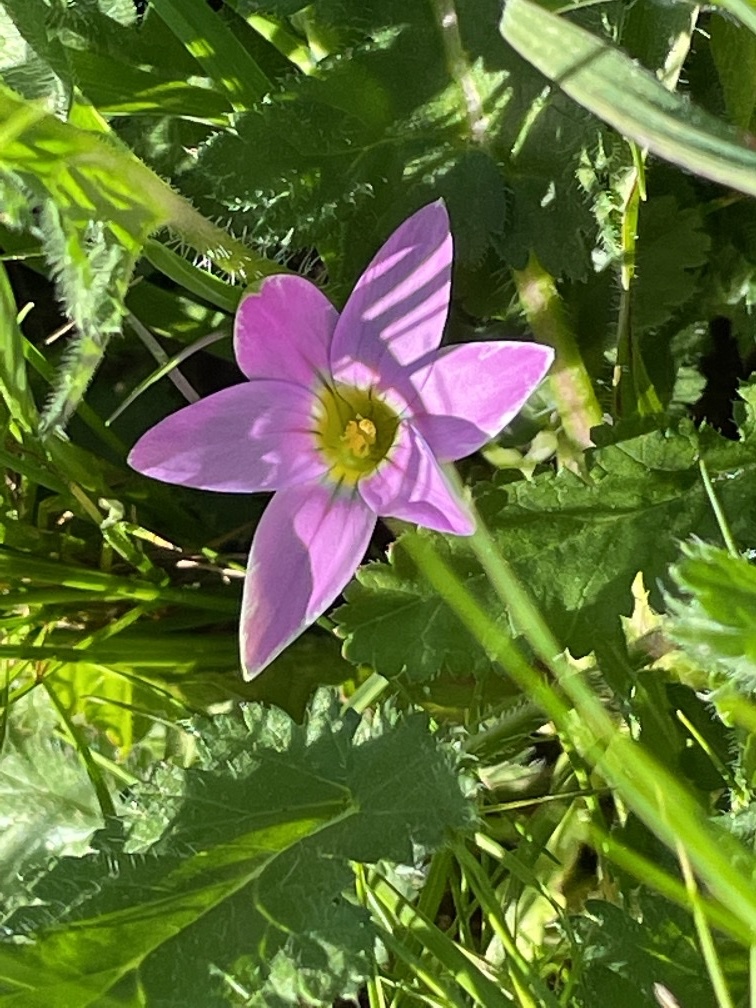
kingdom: Plantae
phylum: Tracheophyta
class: Liliopsida
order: Asparagales
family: Iridaceae
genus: Romulea
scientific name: Romulea rosea
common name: Oniongrass
